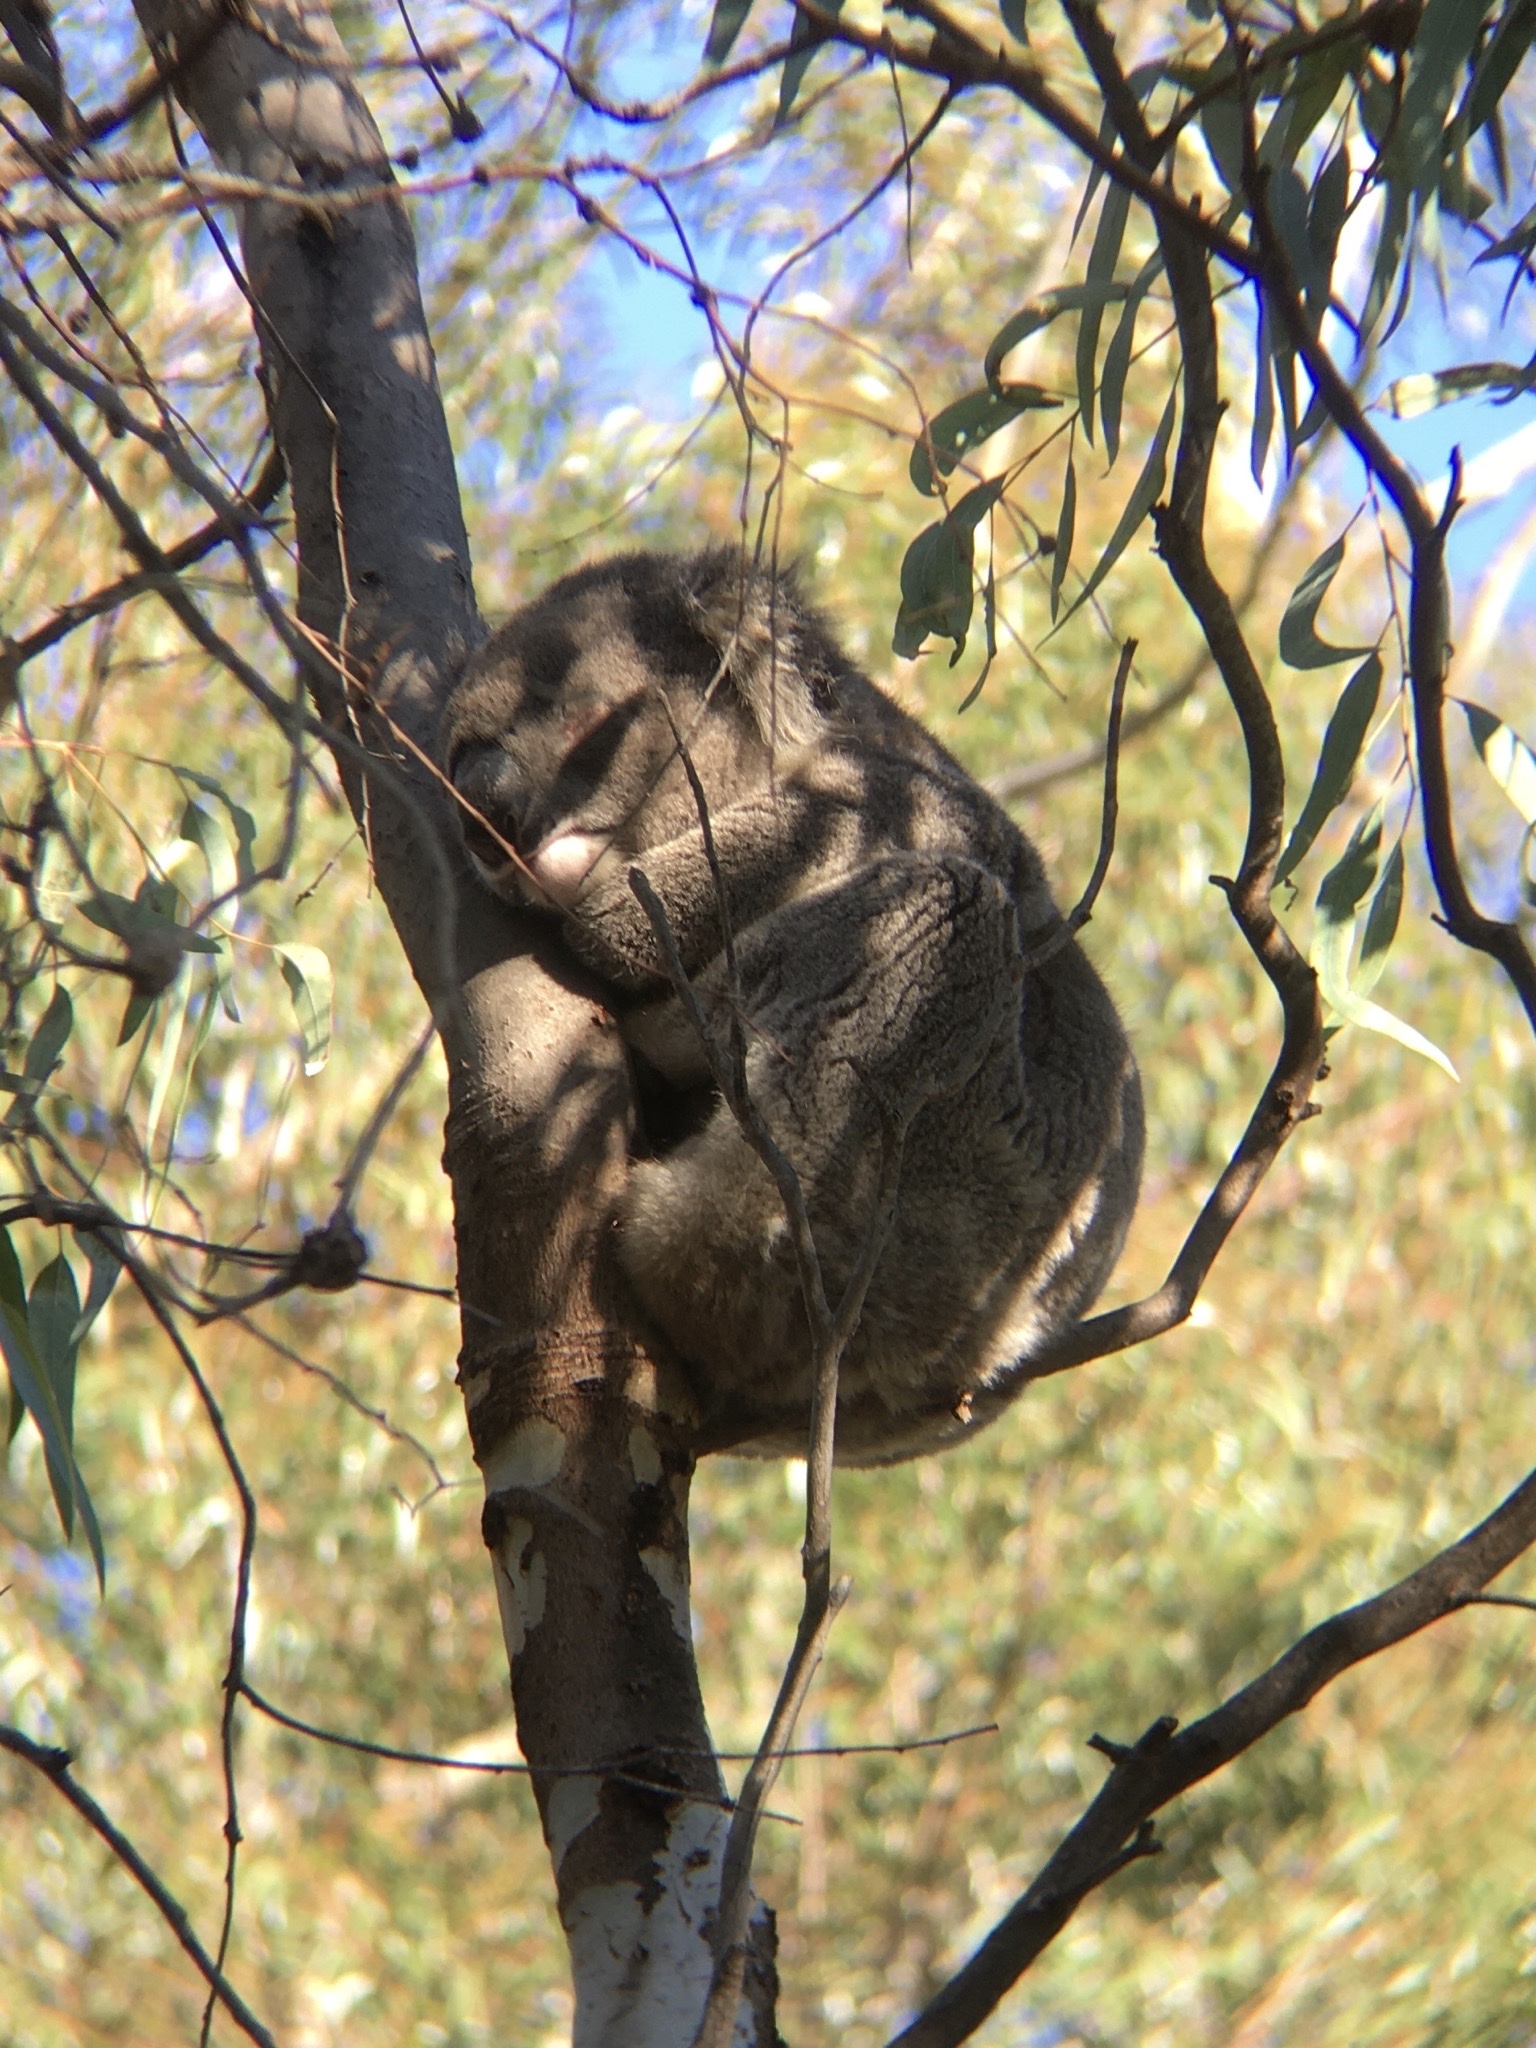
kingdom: Animalia
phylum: Chordata
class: Mammalia
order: Diprotodontia
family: Phascolarctidae
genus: Phascolarctos
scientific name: Phascolarctos cinereus
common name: Koala
